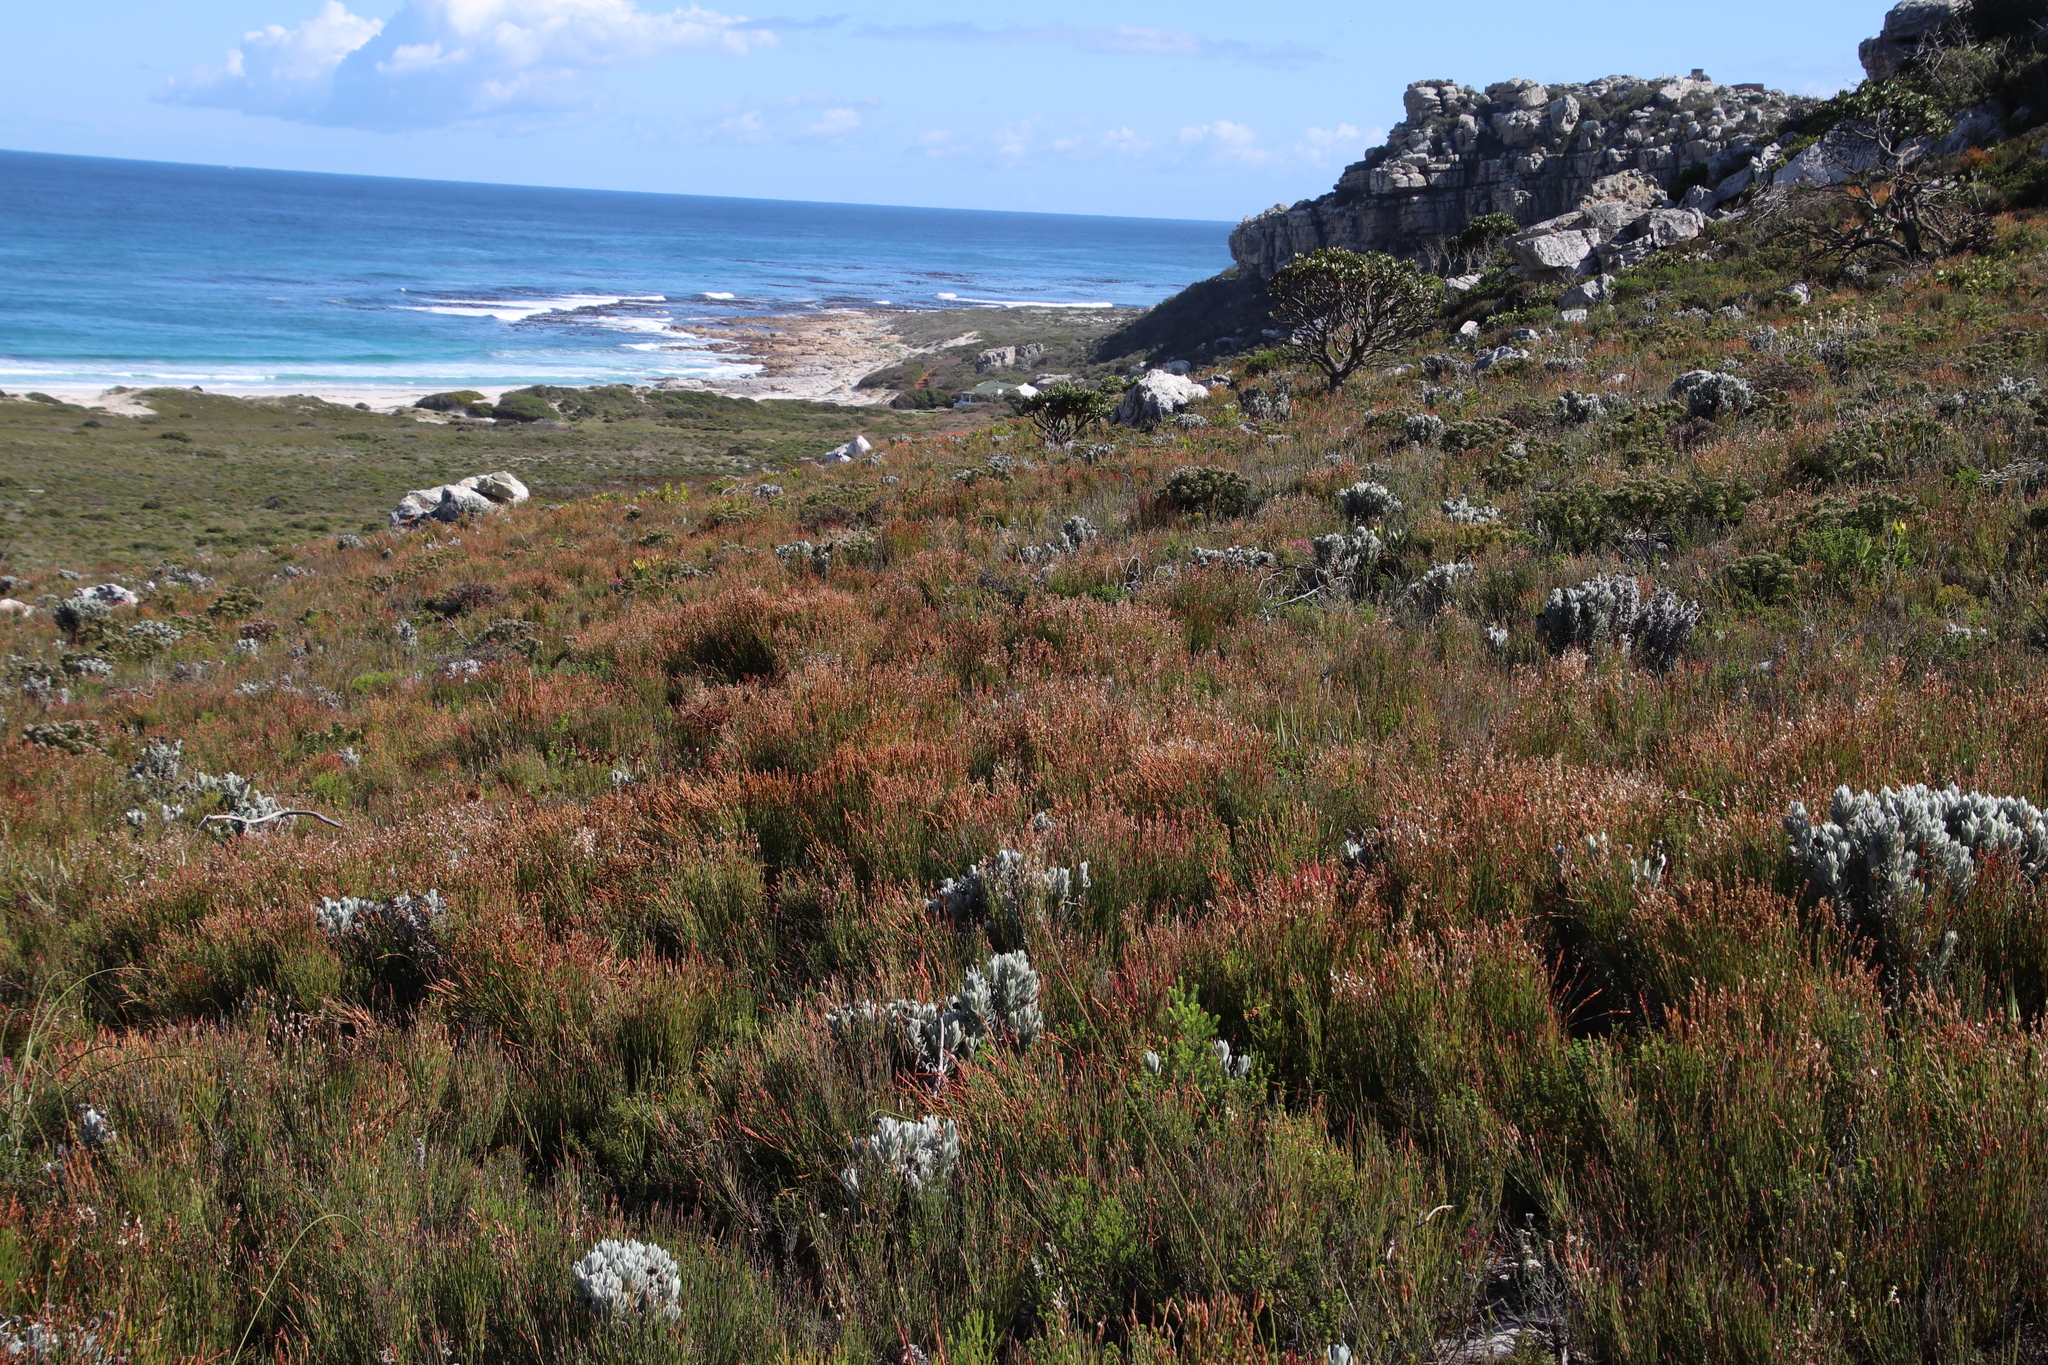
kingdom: Plantae
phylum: Tracheophyta
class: Liliopsida
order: Poales
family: Restionaceae
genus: Elegia
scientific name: Elegia stipularis
